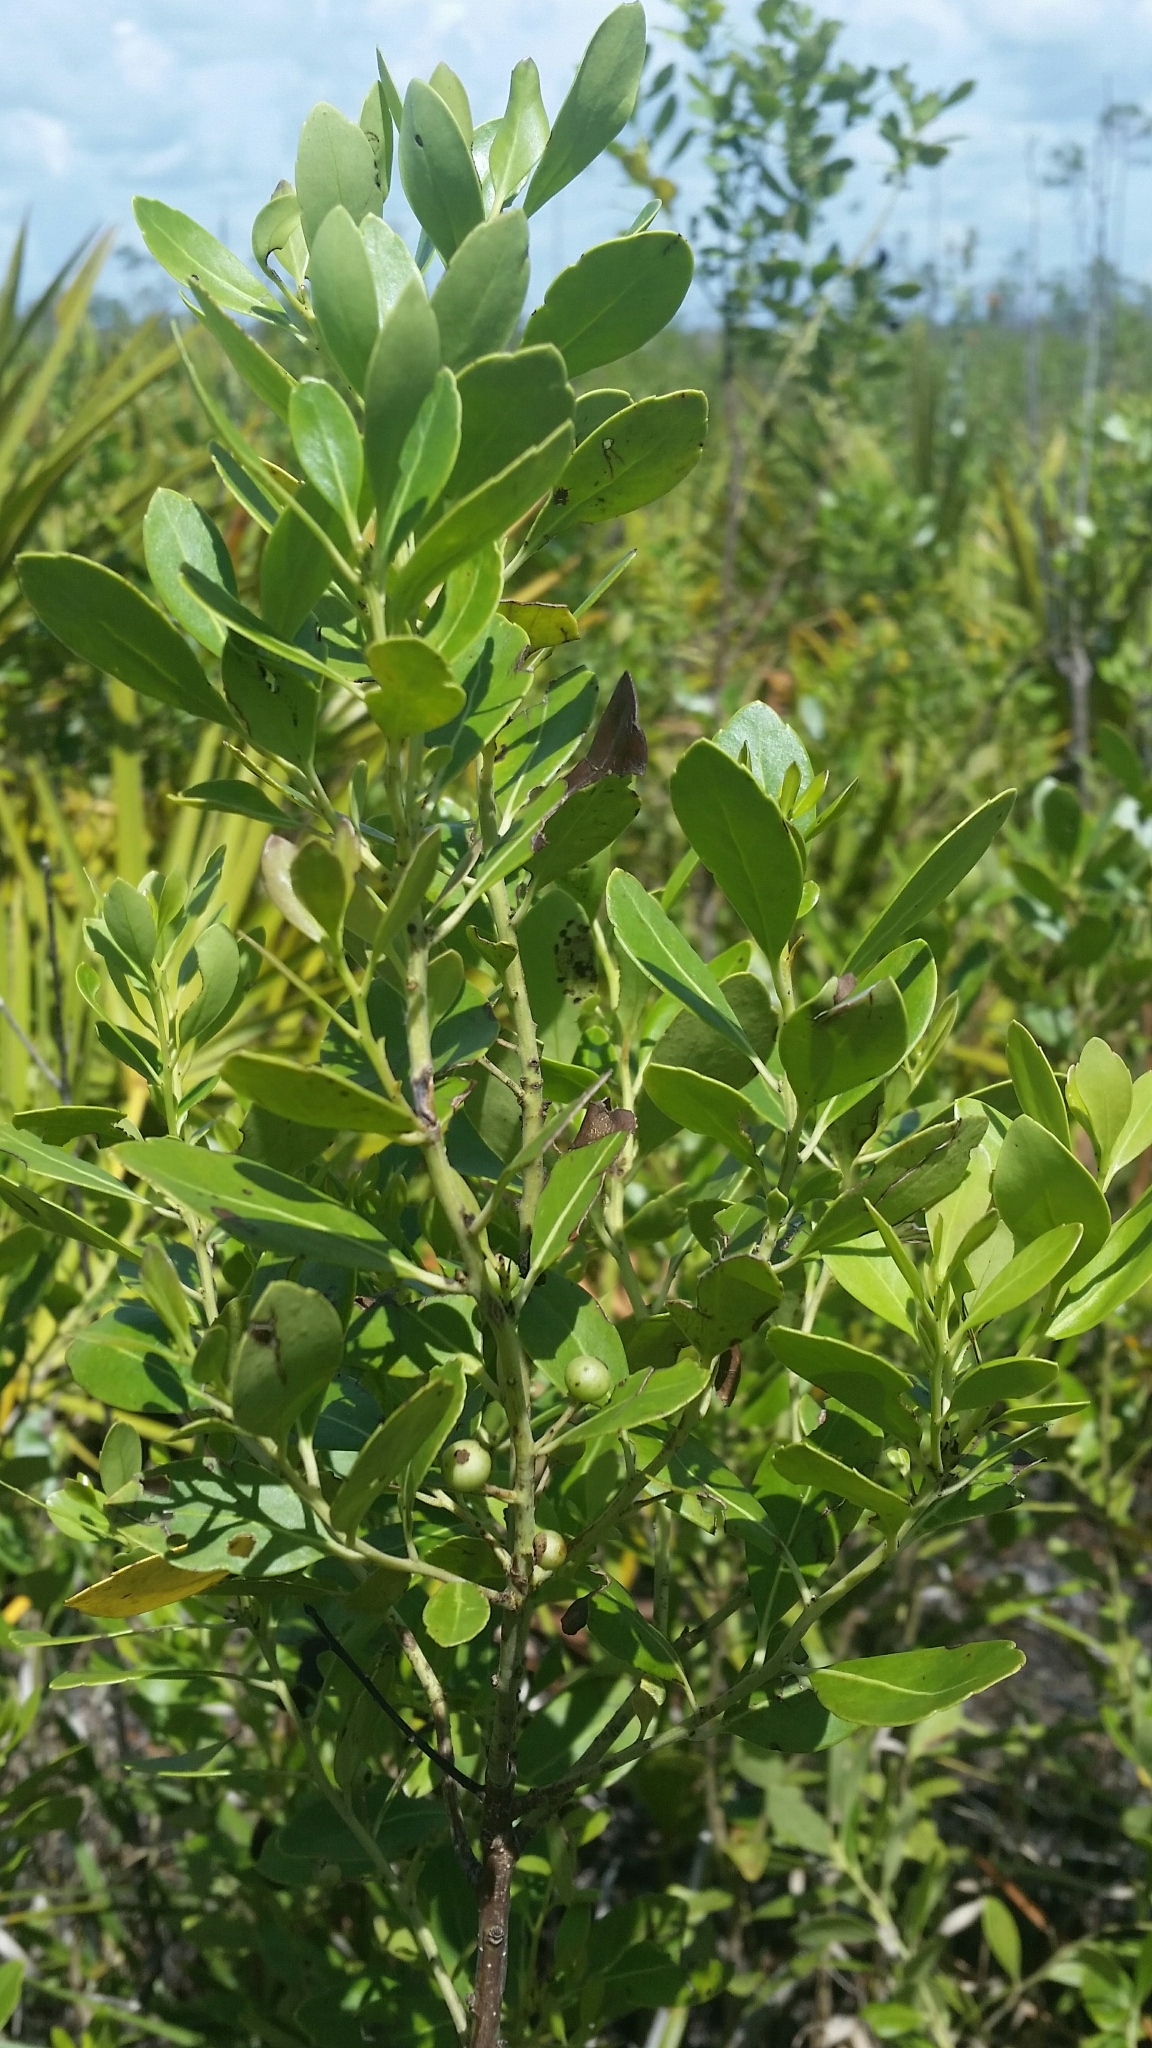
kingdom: Plantae
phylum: Tracheophyta
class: Magnoliopsida
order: Aquifoliales
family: Aquifoliaceae
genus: Ilex
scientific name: Ilex glabra
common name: Bitter gallberry
